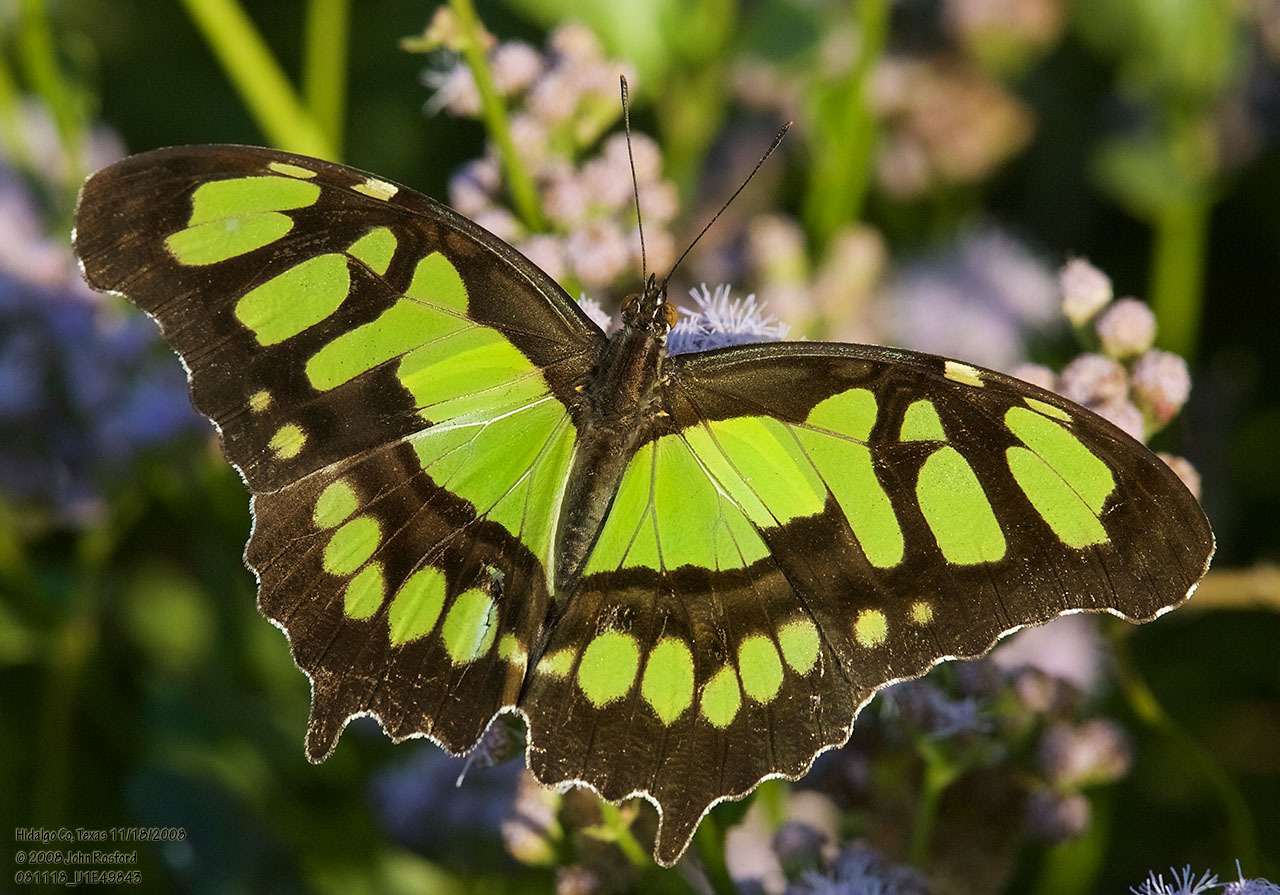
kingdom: Animalia
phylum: Arthropoda
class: Insecta
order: Lepidoptera
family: Nymphalidae
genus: Siproeta
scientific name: Siproeta stelenes
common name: Malachite
